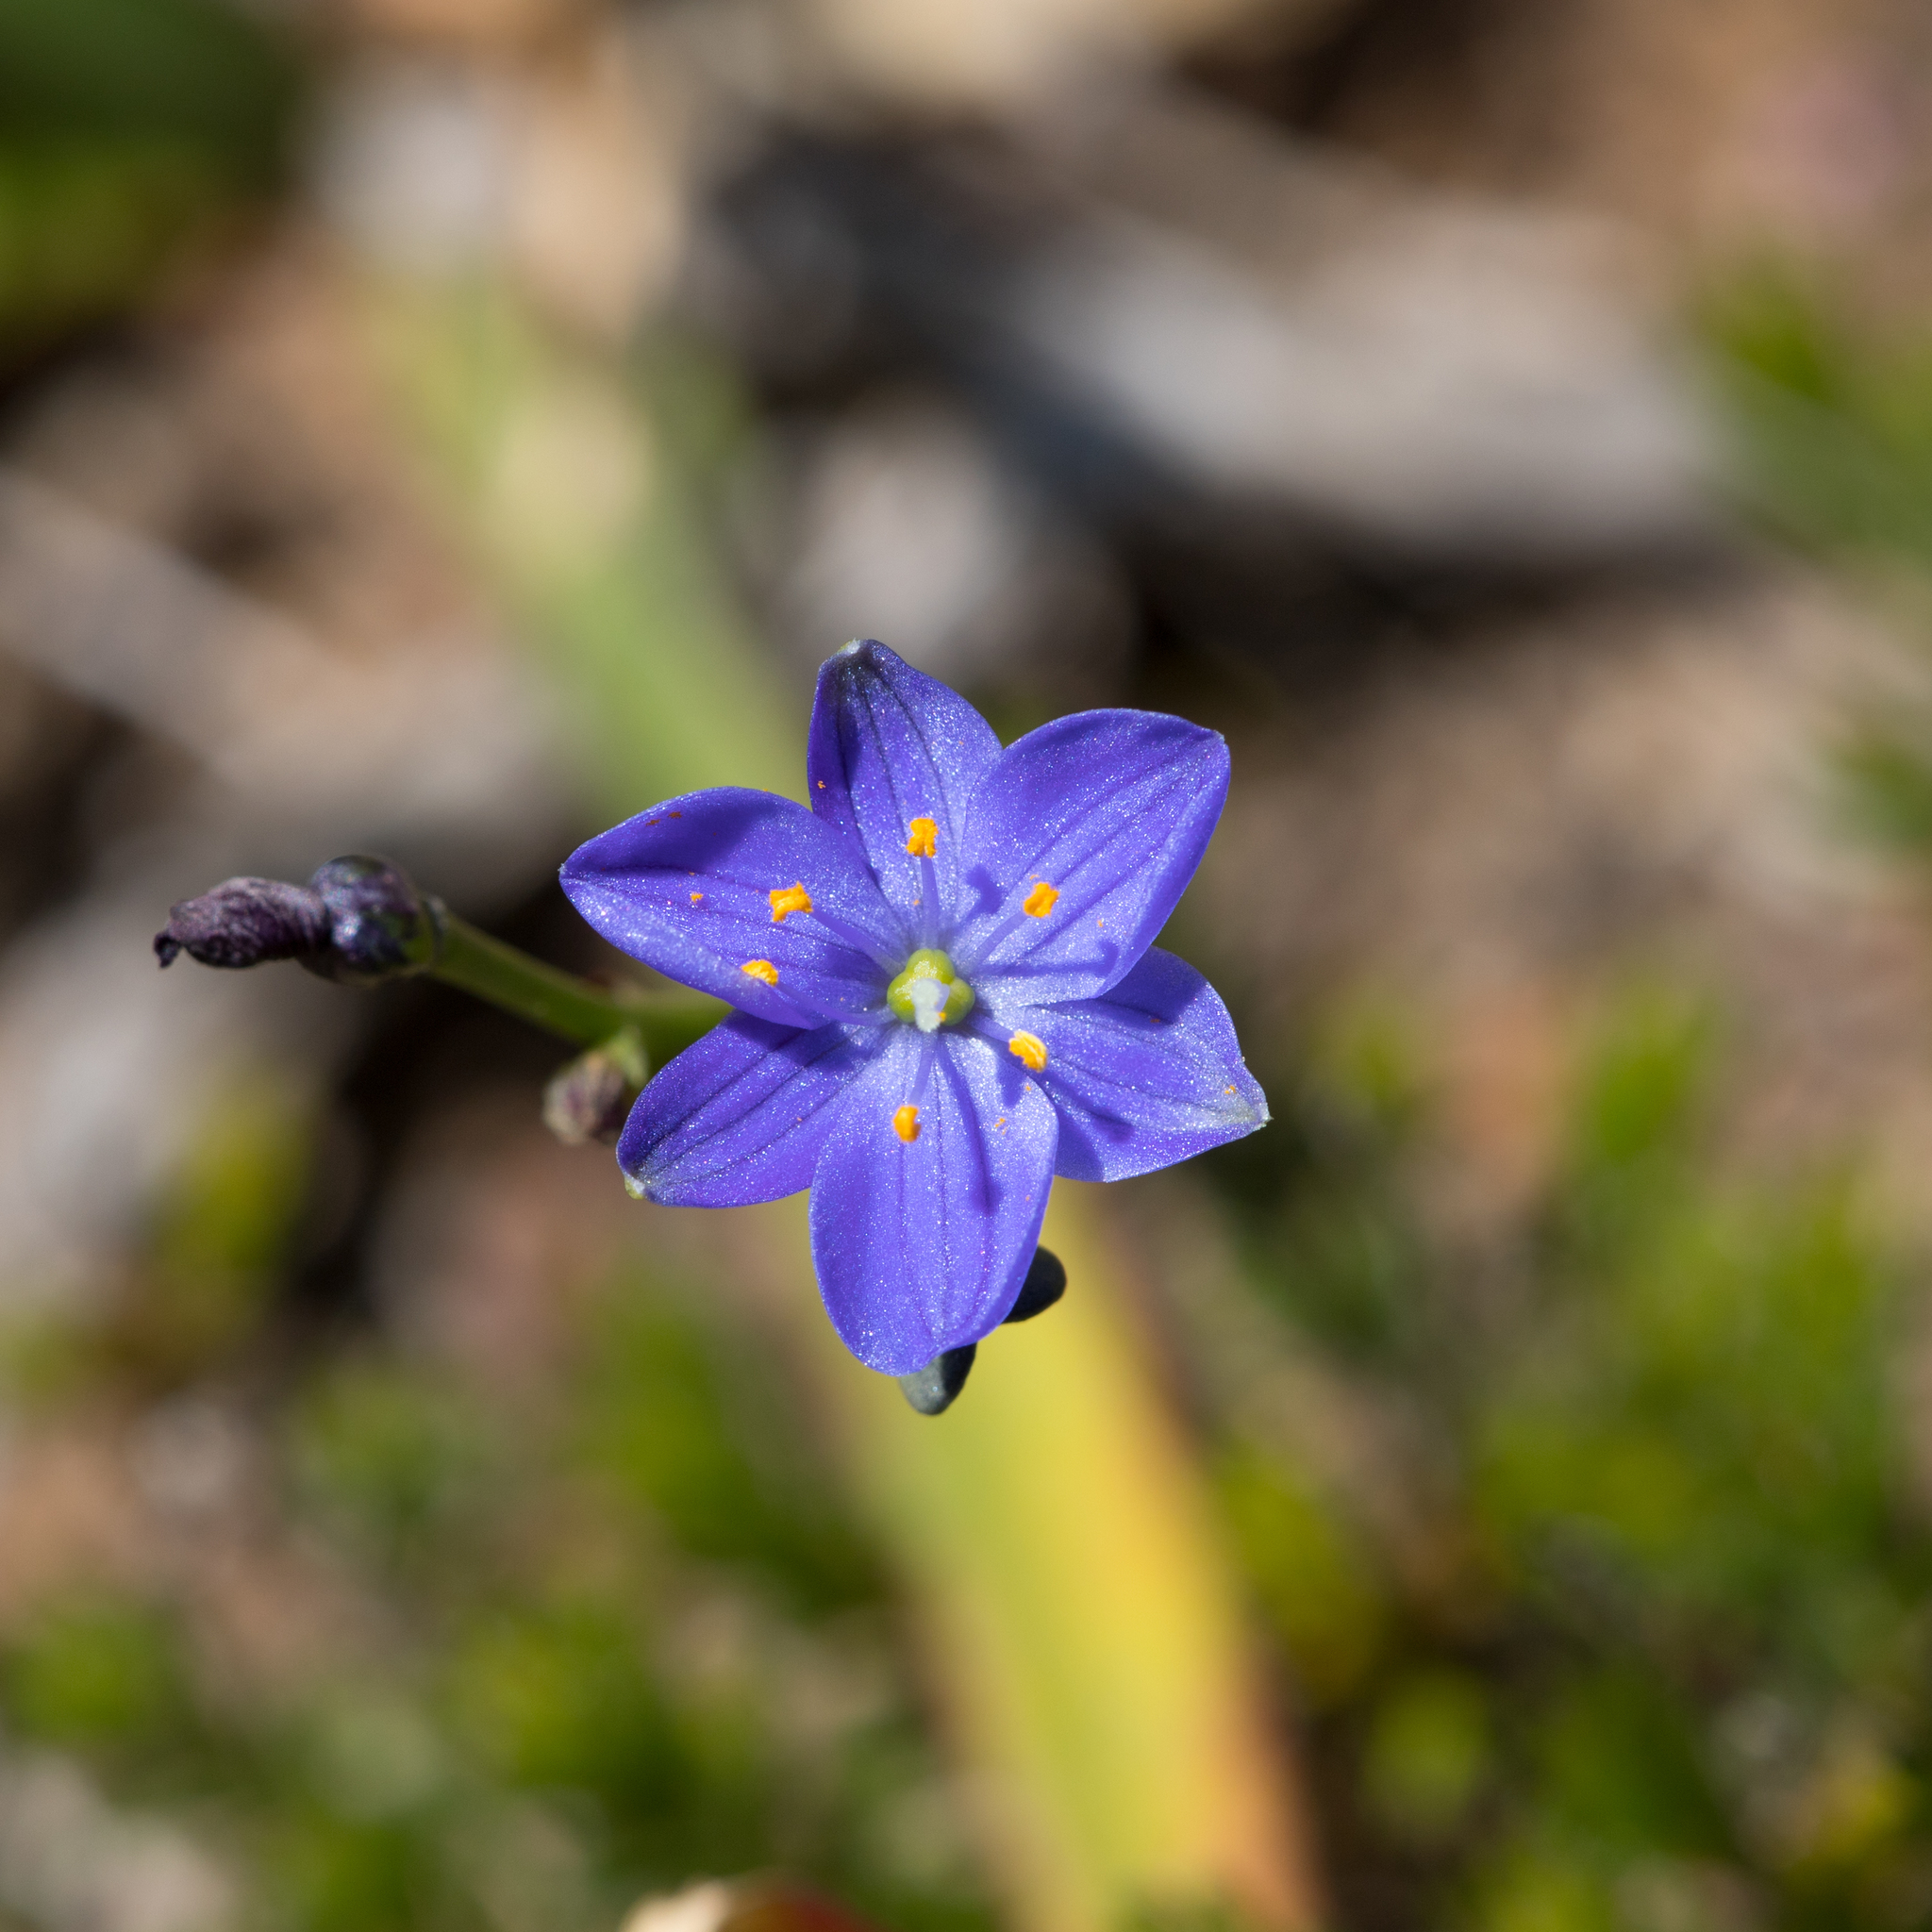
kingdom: Plantae
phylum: Tracheophyta
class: Liliopsida
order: Asparagales
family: Asphodelaceae
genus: Chamaescilla
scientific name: Chamaescilla corymbosa
